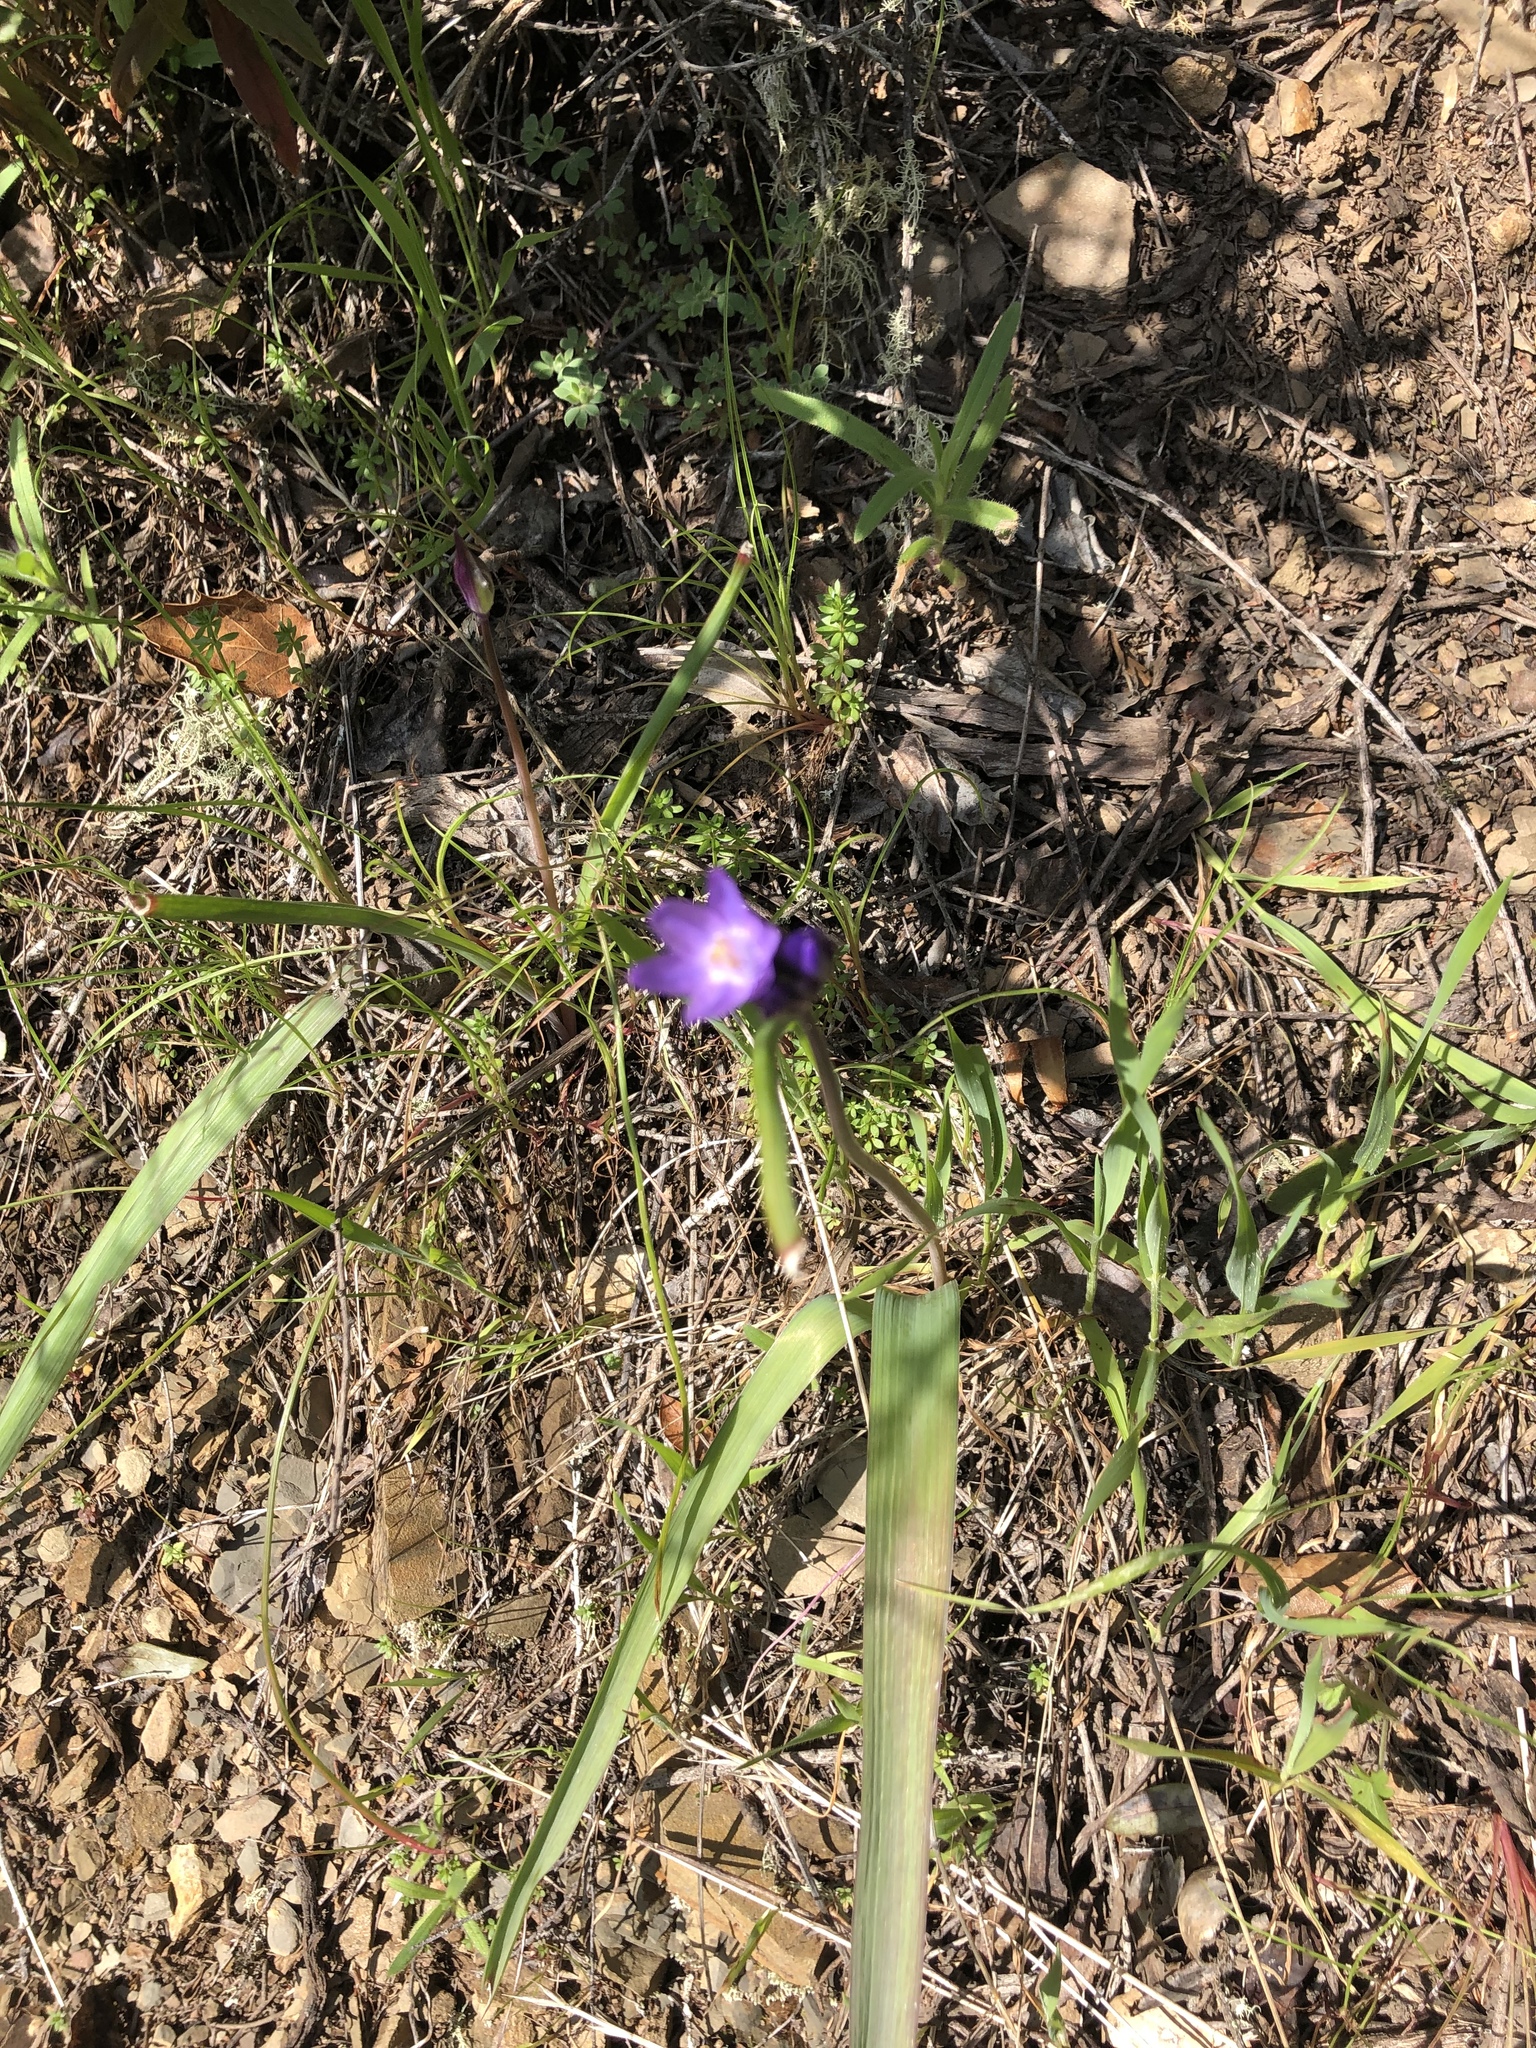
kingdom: Plantae
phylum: Tracheophyta
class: Liliopsida
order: Asparagales
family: Asparagaceae
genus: Dipterostemon
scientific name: Dipterostemon capitatus
